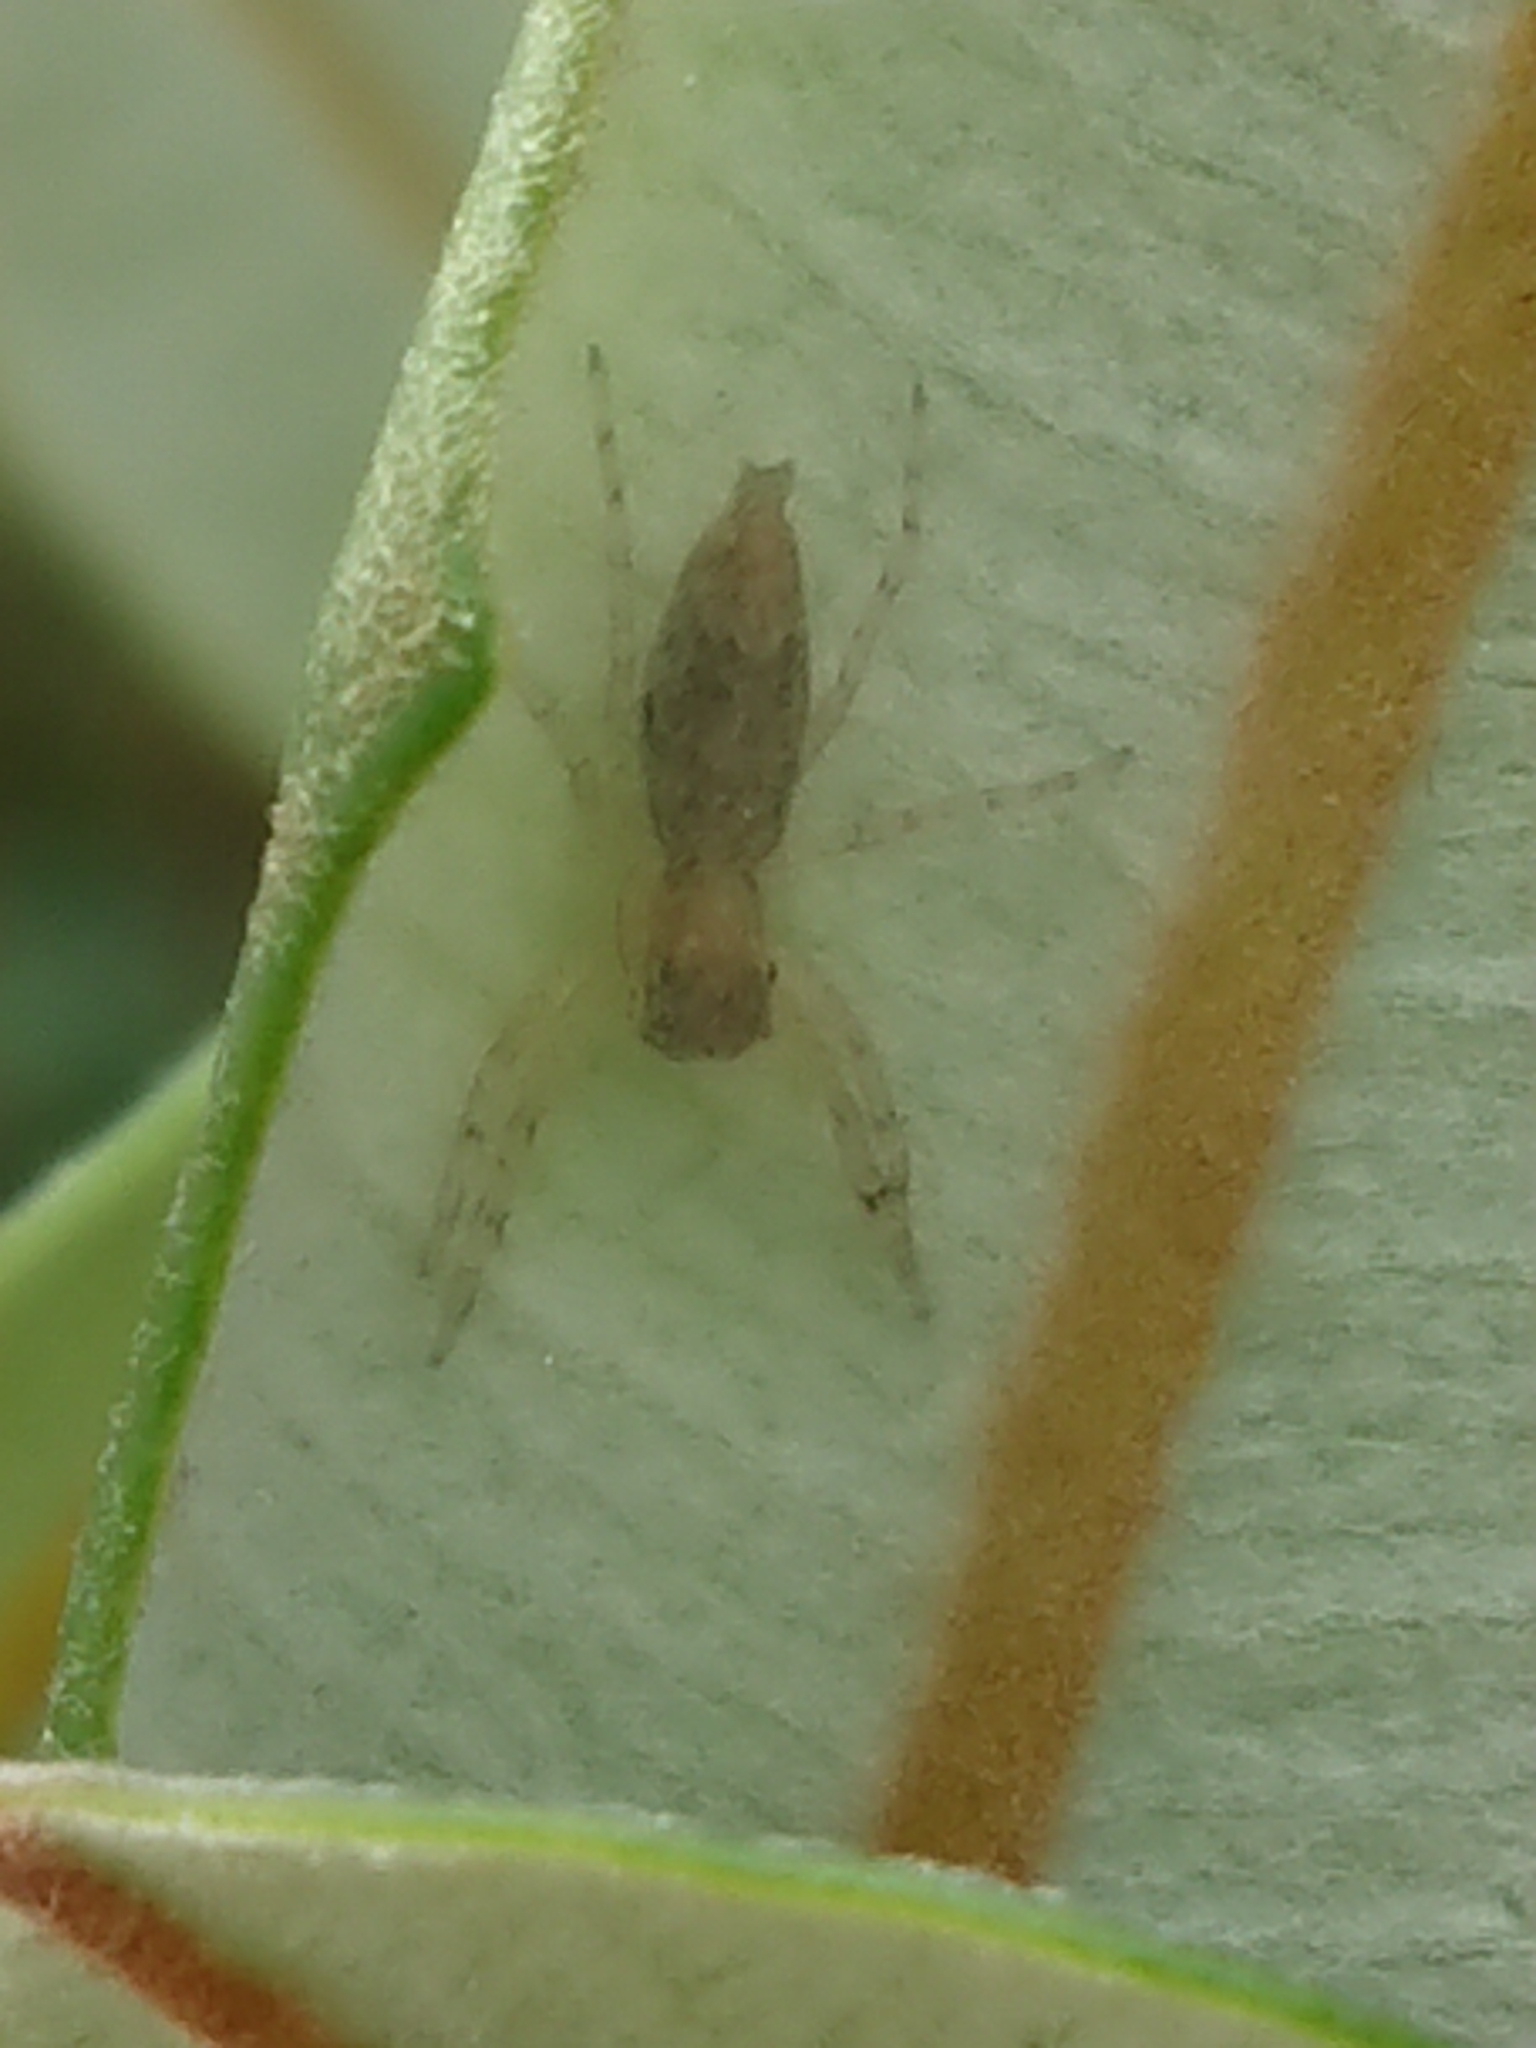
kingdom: Animalia
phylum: Arthropoda
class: Arachnida
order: Araneae
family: Salticidae
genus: Helpis
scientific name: Helpis minitabunda
